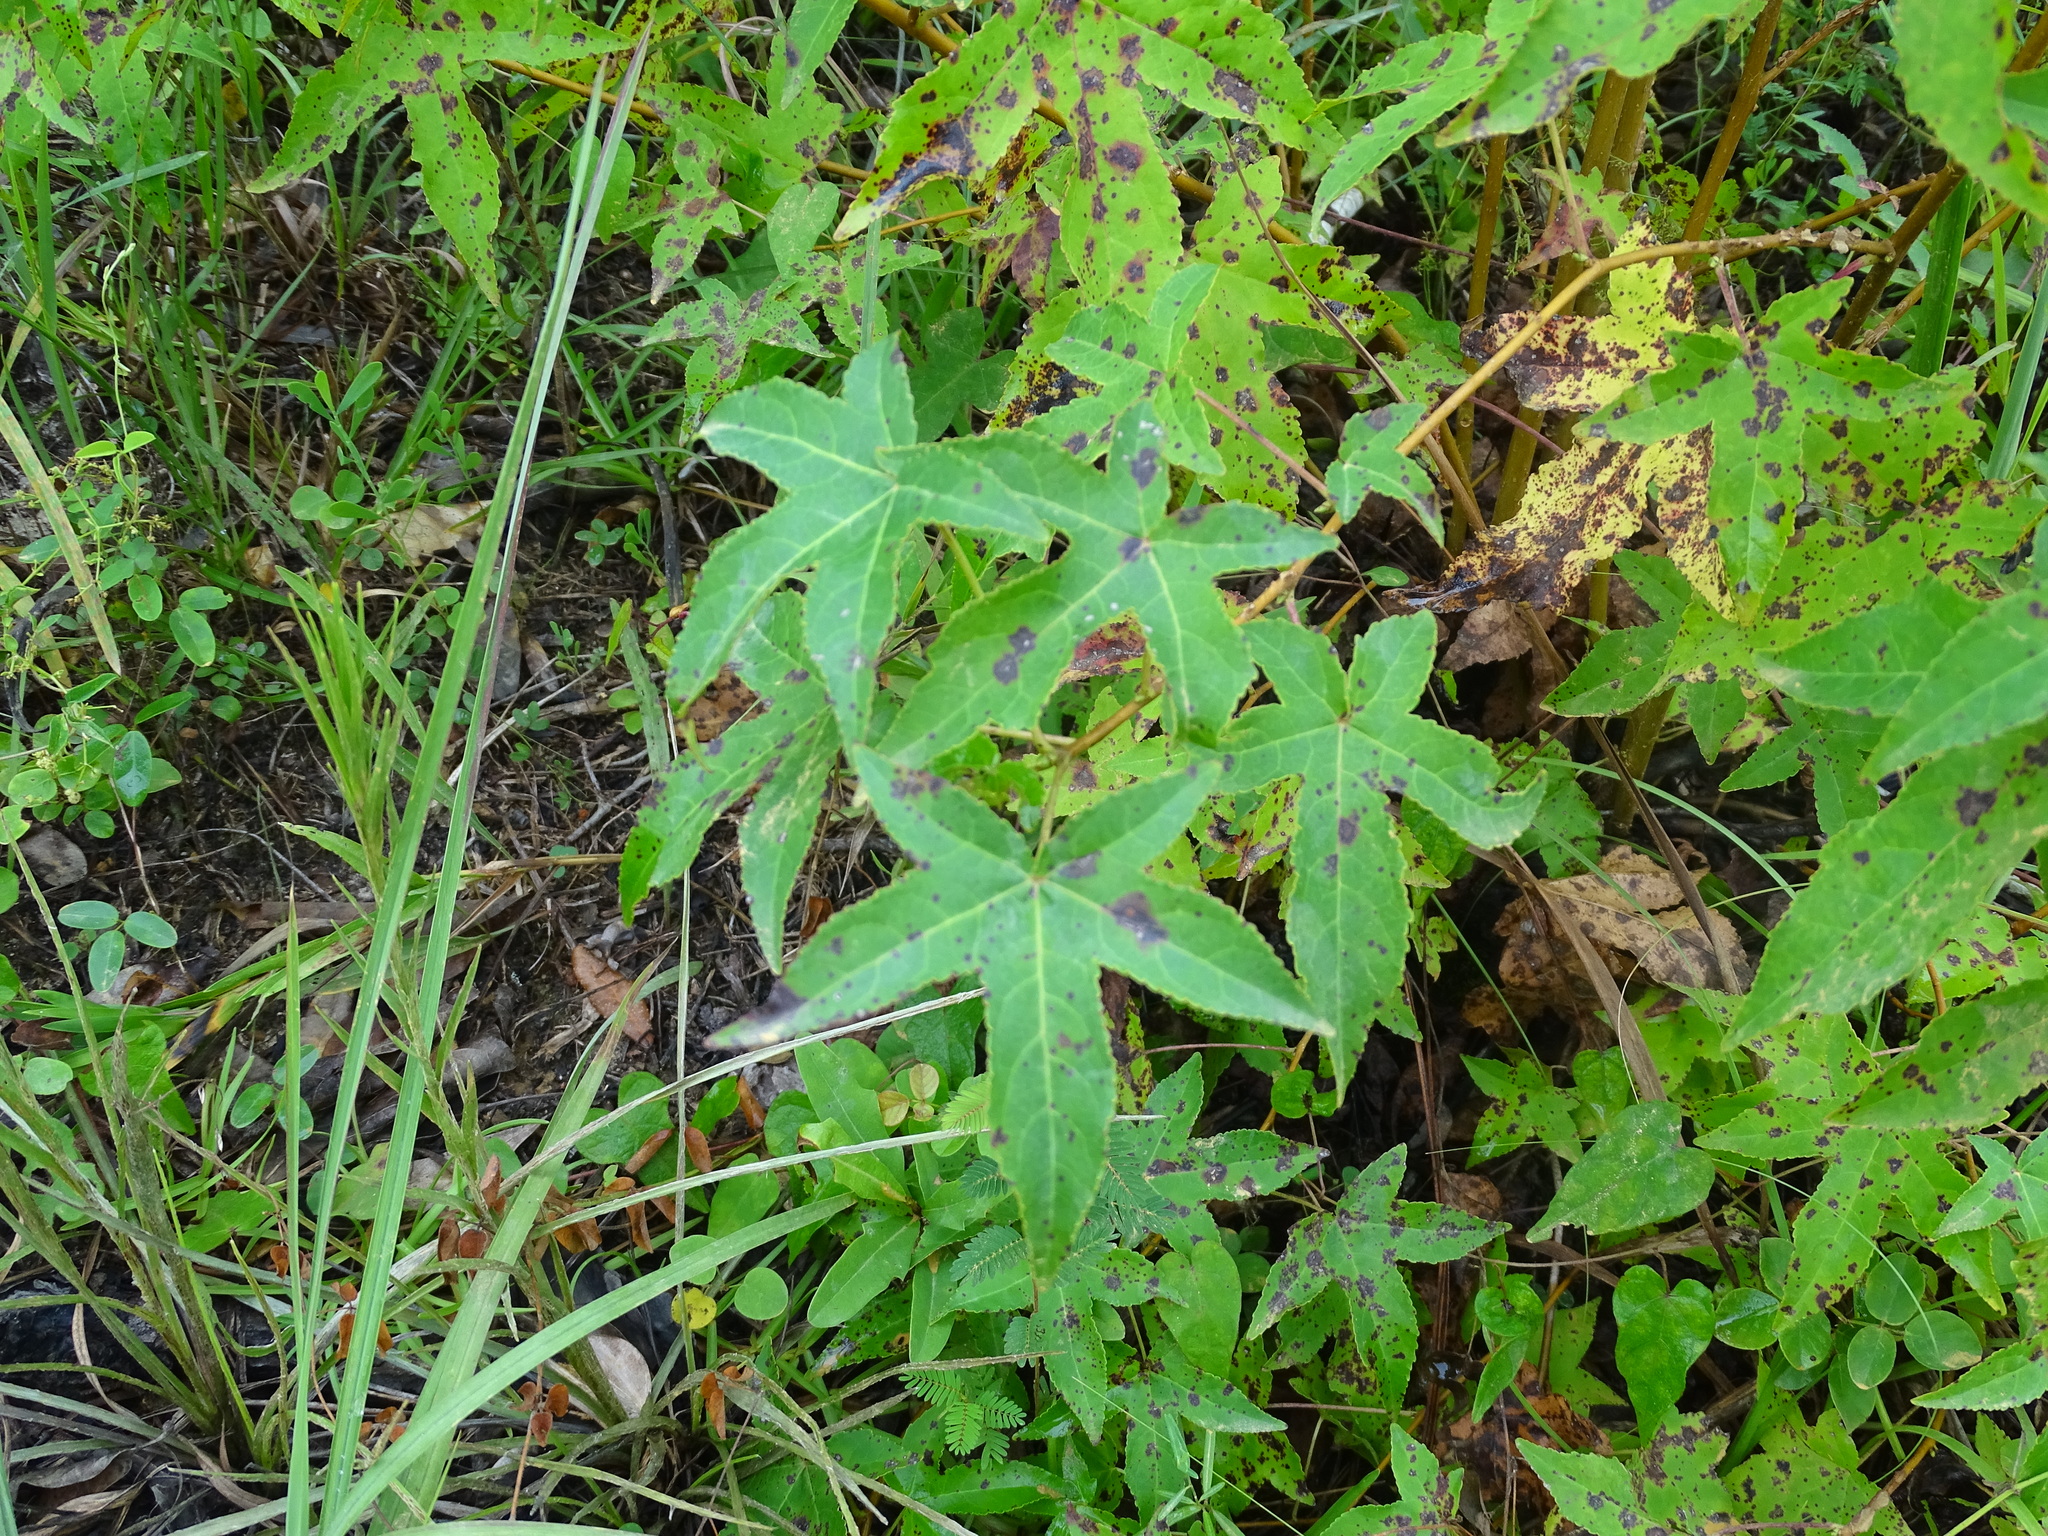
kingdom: Plantae
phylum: Tracheophyta
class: Magnoliopsida
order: Saxifragales
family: Altingiaceae
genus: Liquidambar
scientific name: Liquidambar styraciflua
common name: Sweet gum
